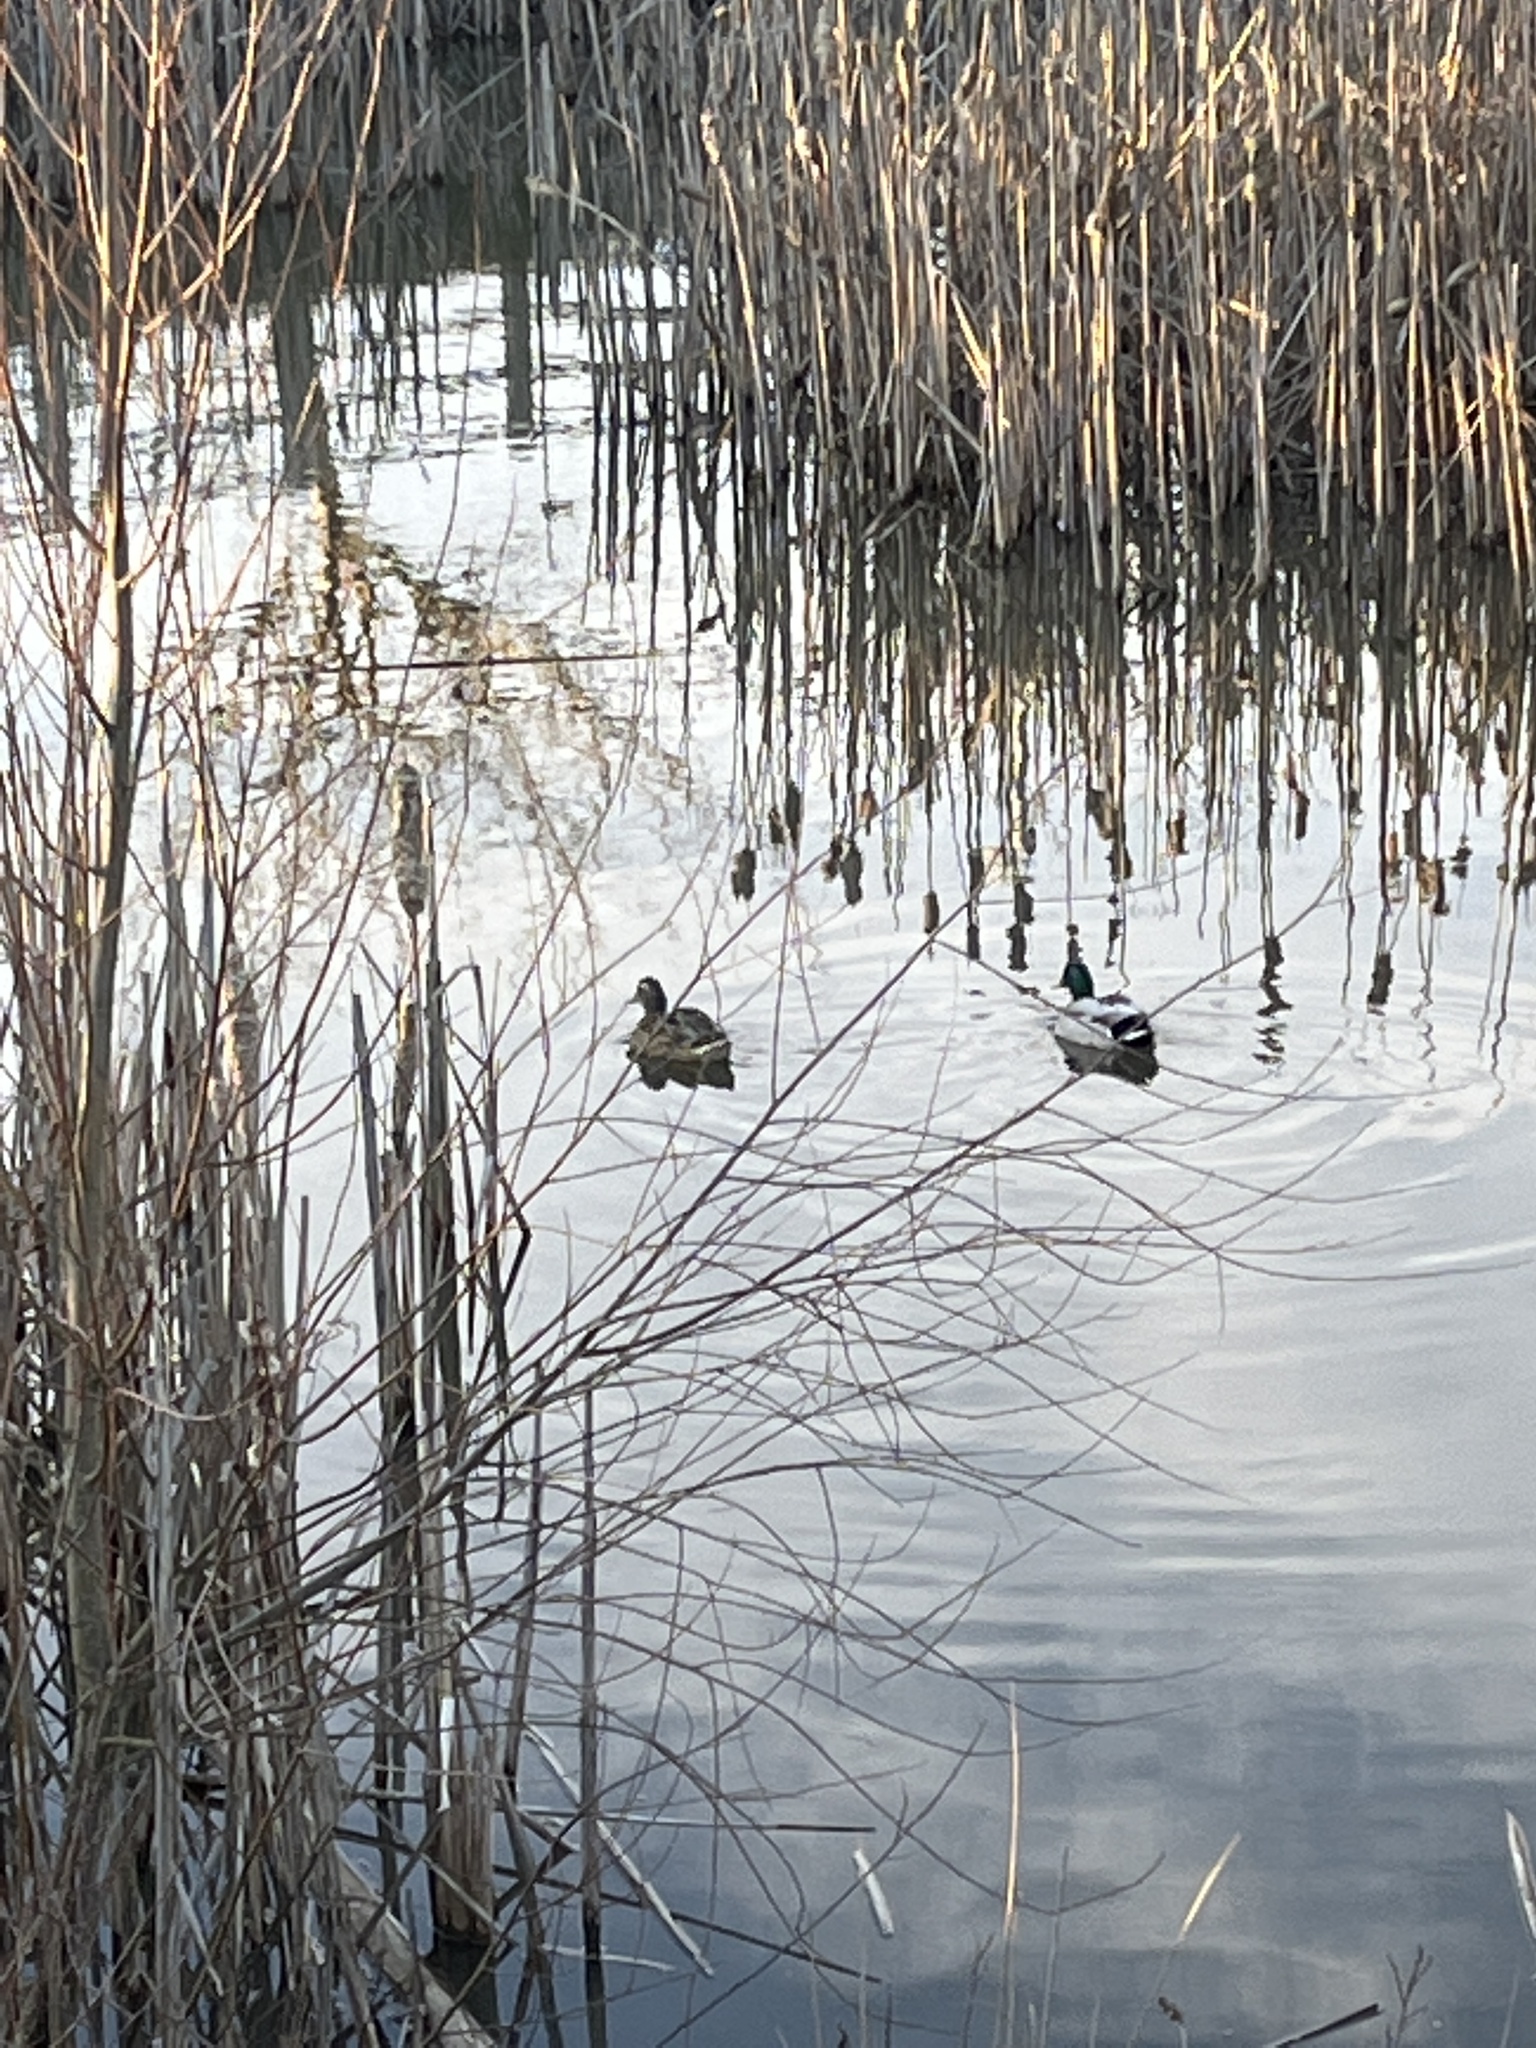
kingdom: Animalia
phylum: Chordata
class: Aves
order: Anseriformes
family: Anatidae
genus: Anas
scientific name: Anas platyrhynchos
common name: Mallard
